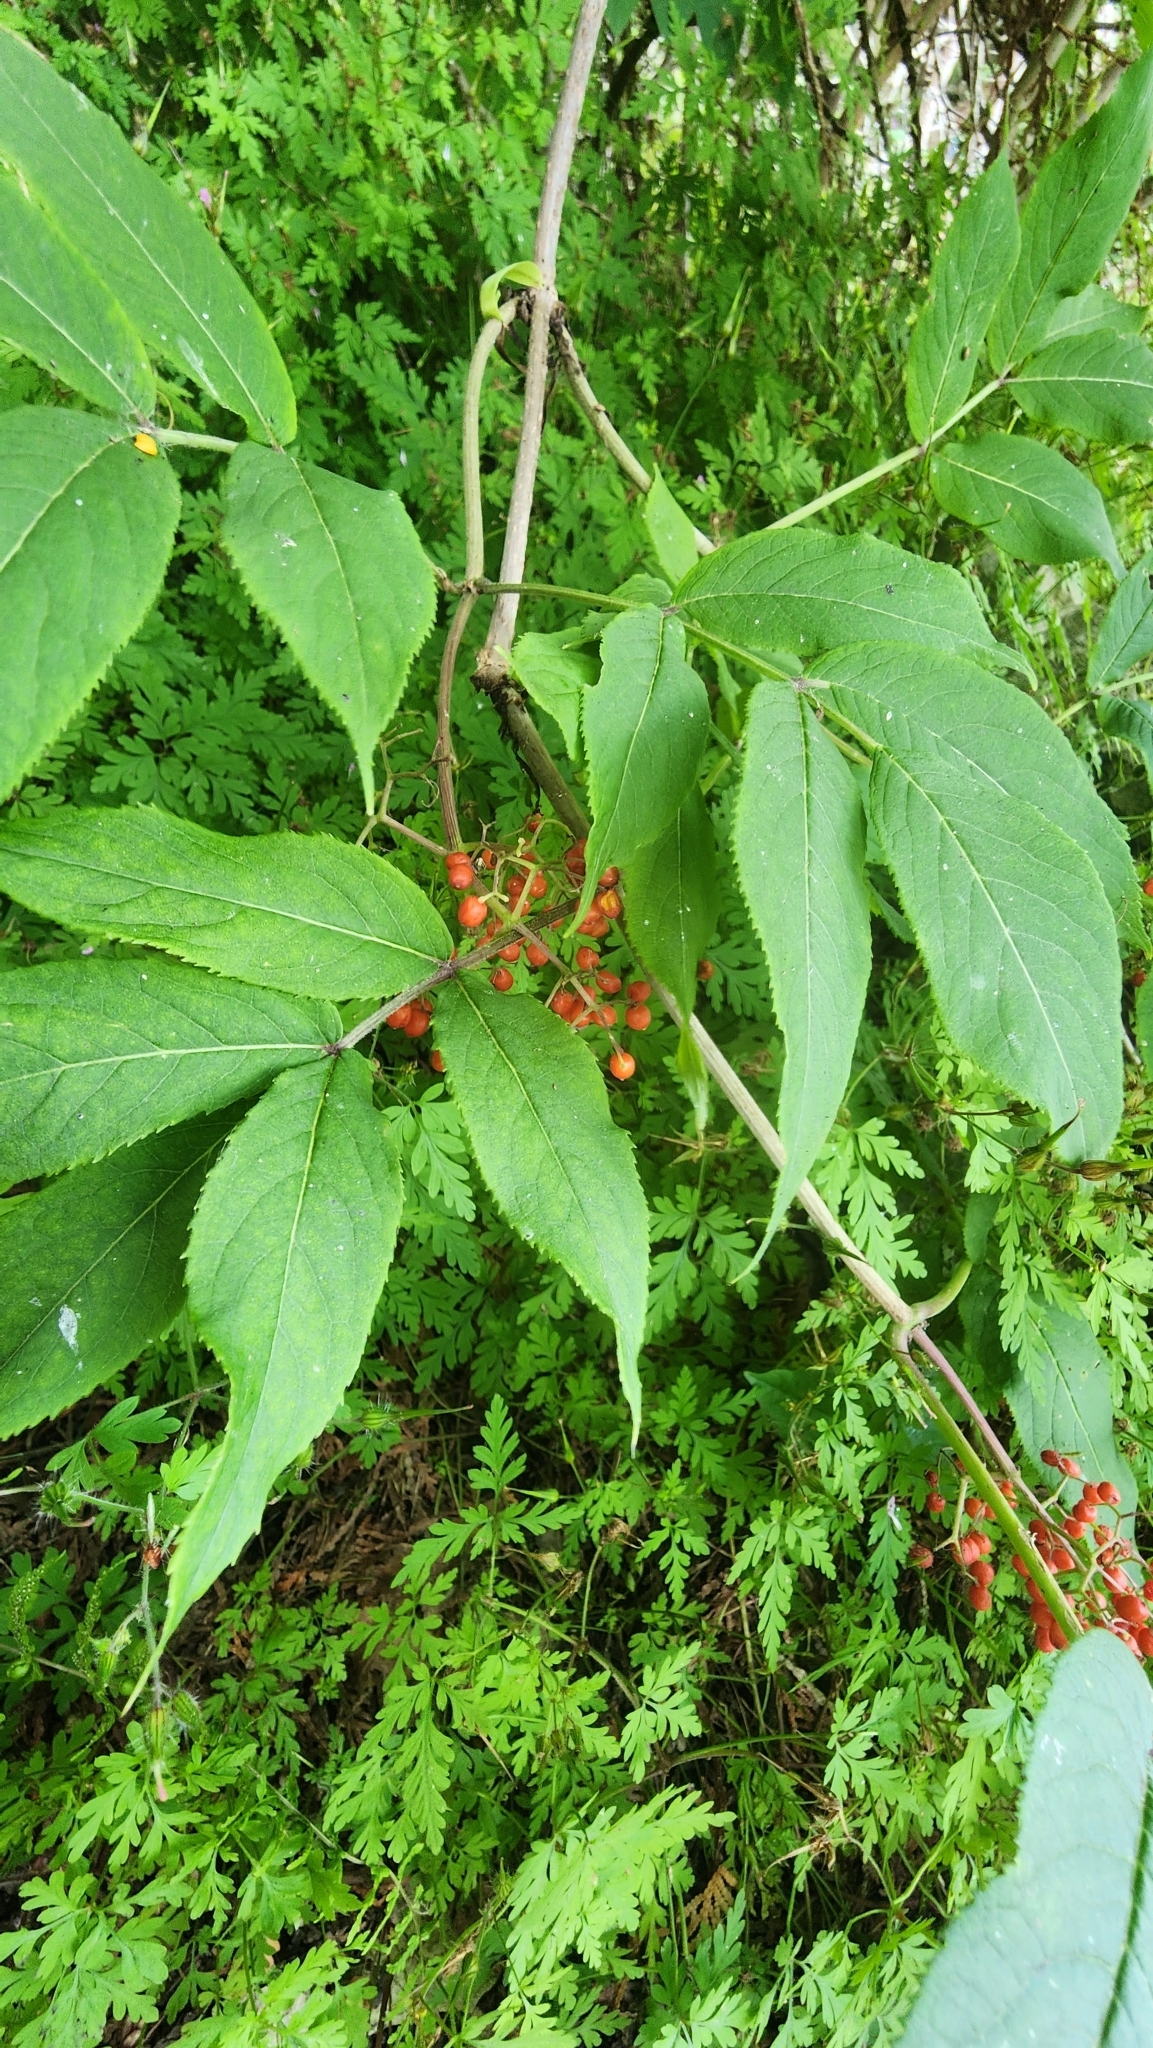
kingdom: Plantae
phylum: Tracheophyta
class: Magnoliopsida
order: Dipsacales
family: Viburnaceae
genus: Sambucus
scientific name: Sambucus racemosa
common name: Red-berried elder
